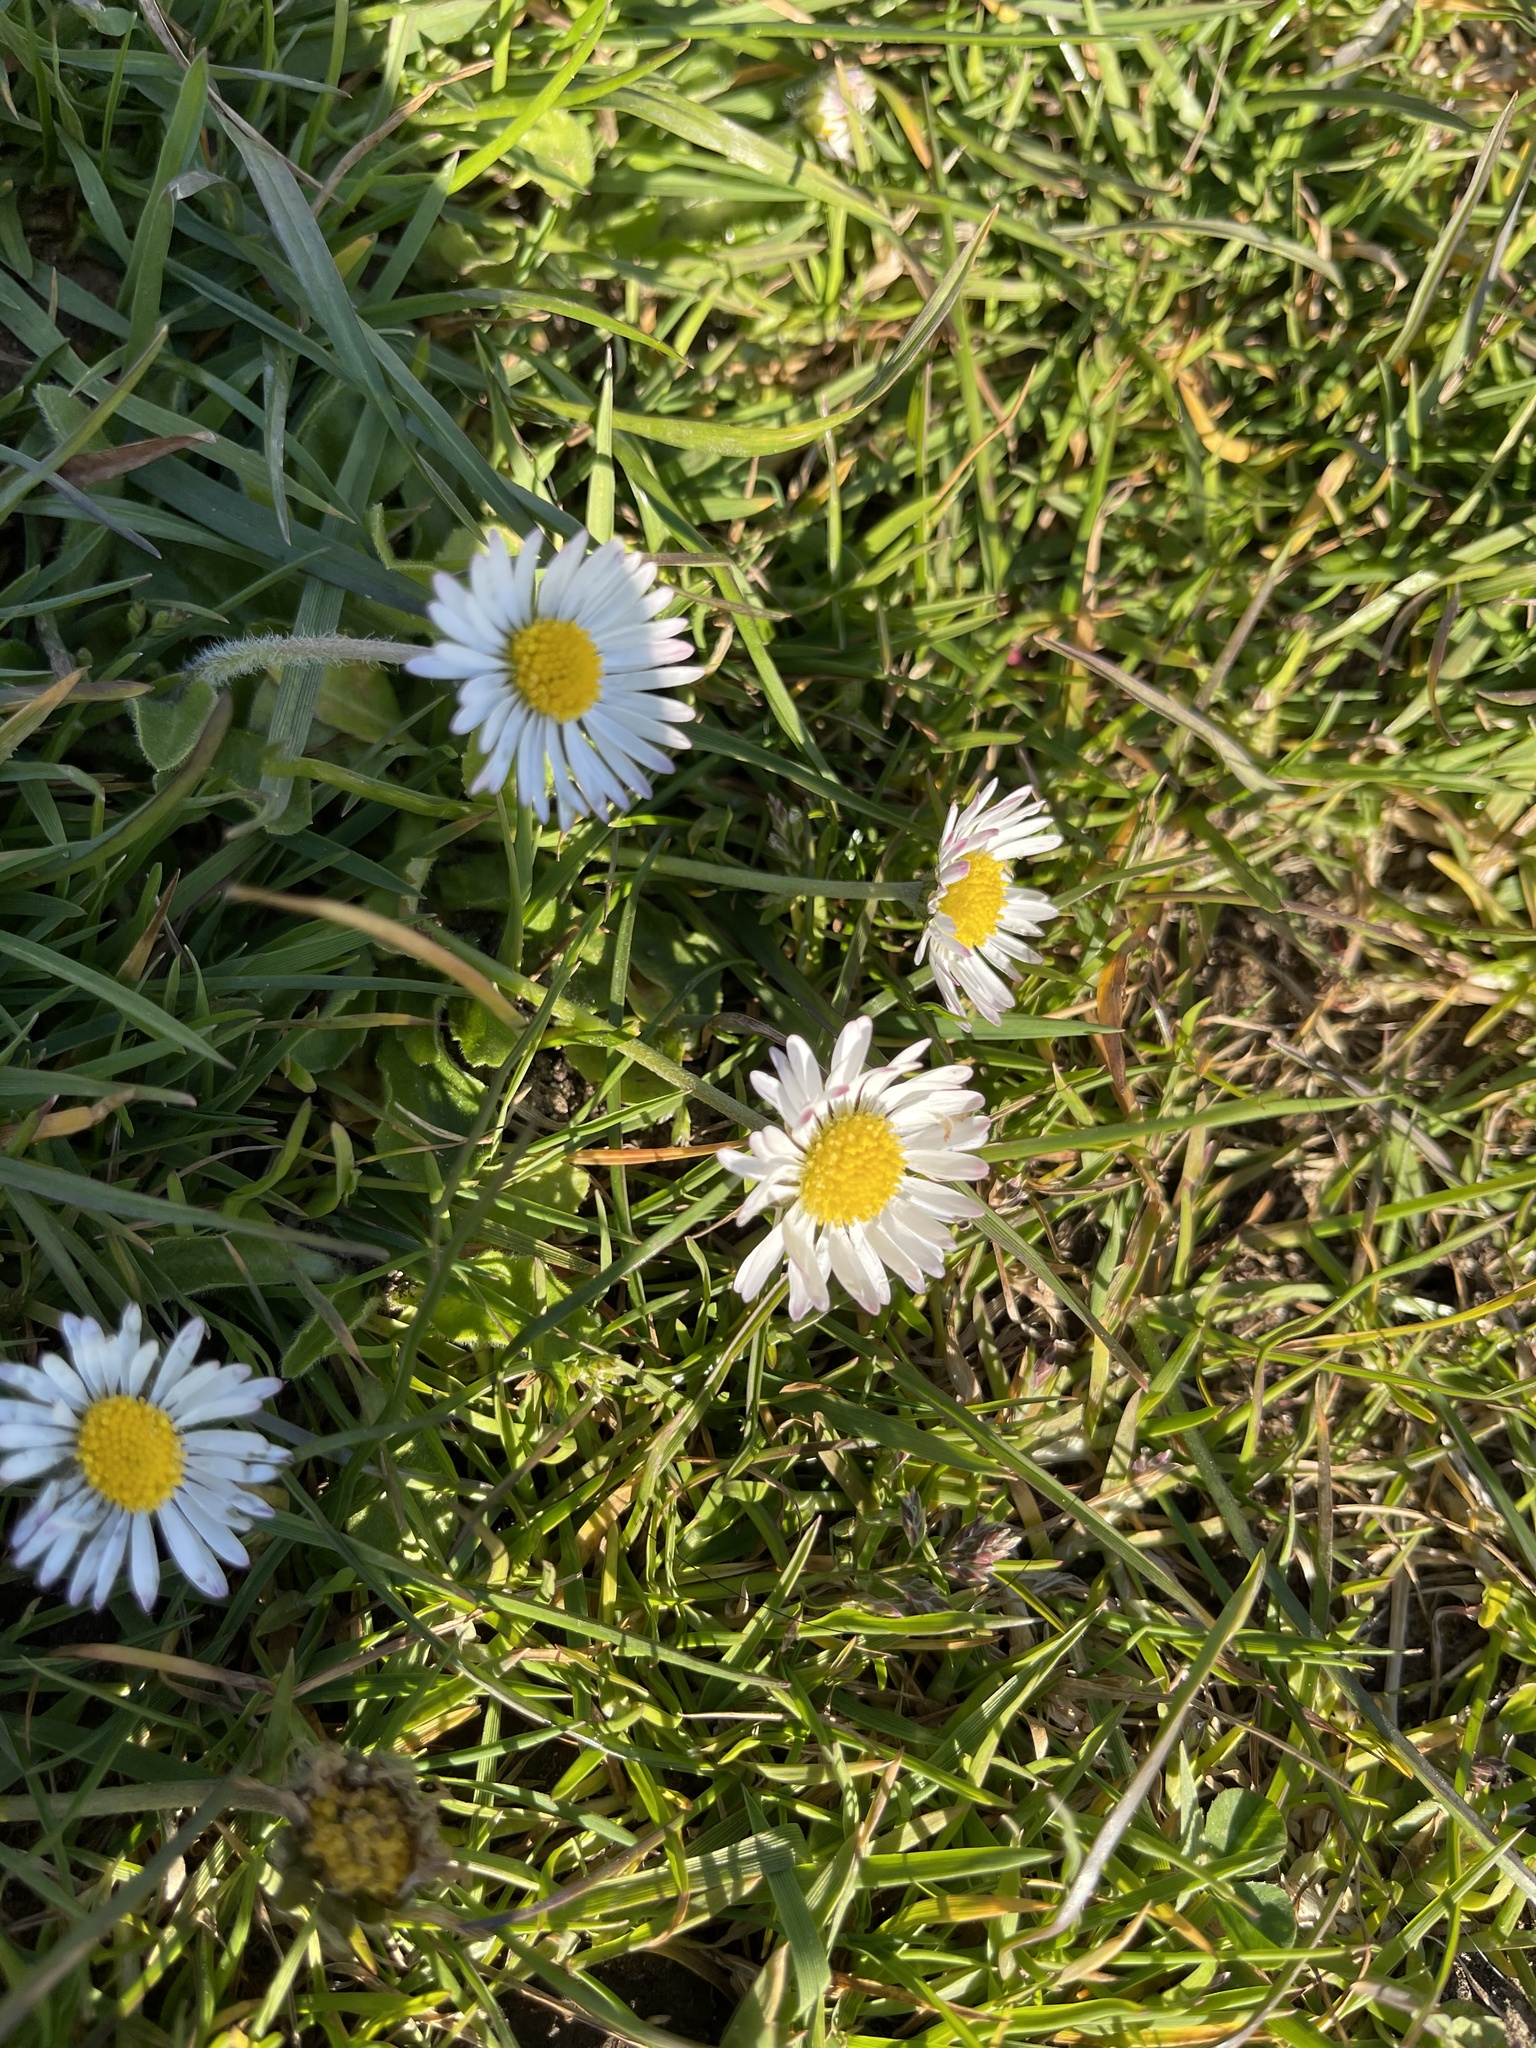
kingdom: Plantae
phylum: Tracheophyta
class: Magnoliopsida
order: Asterales
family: Asteraceae
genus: Bellis
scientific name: Bellis perennis
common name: Lawndaisy
